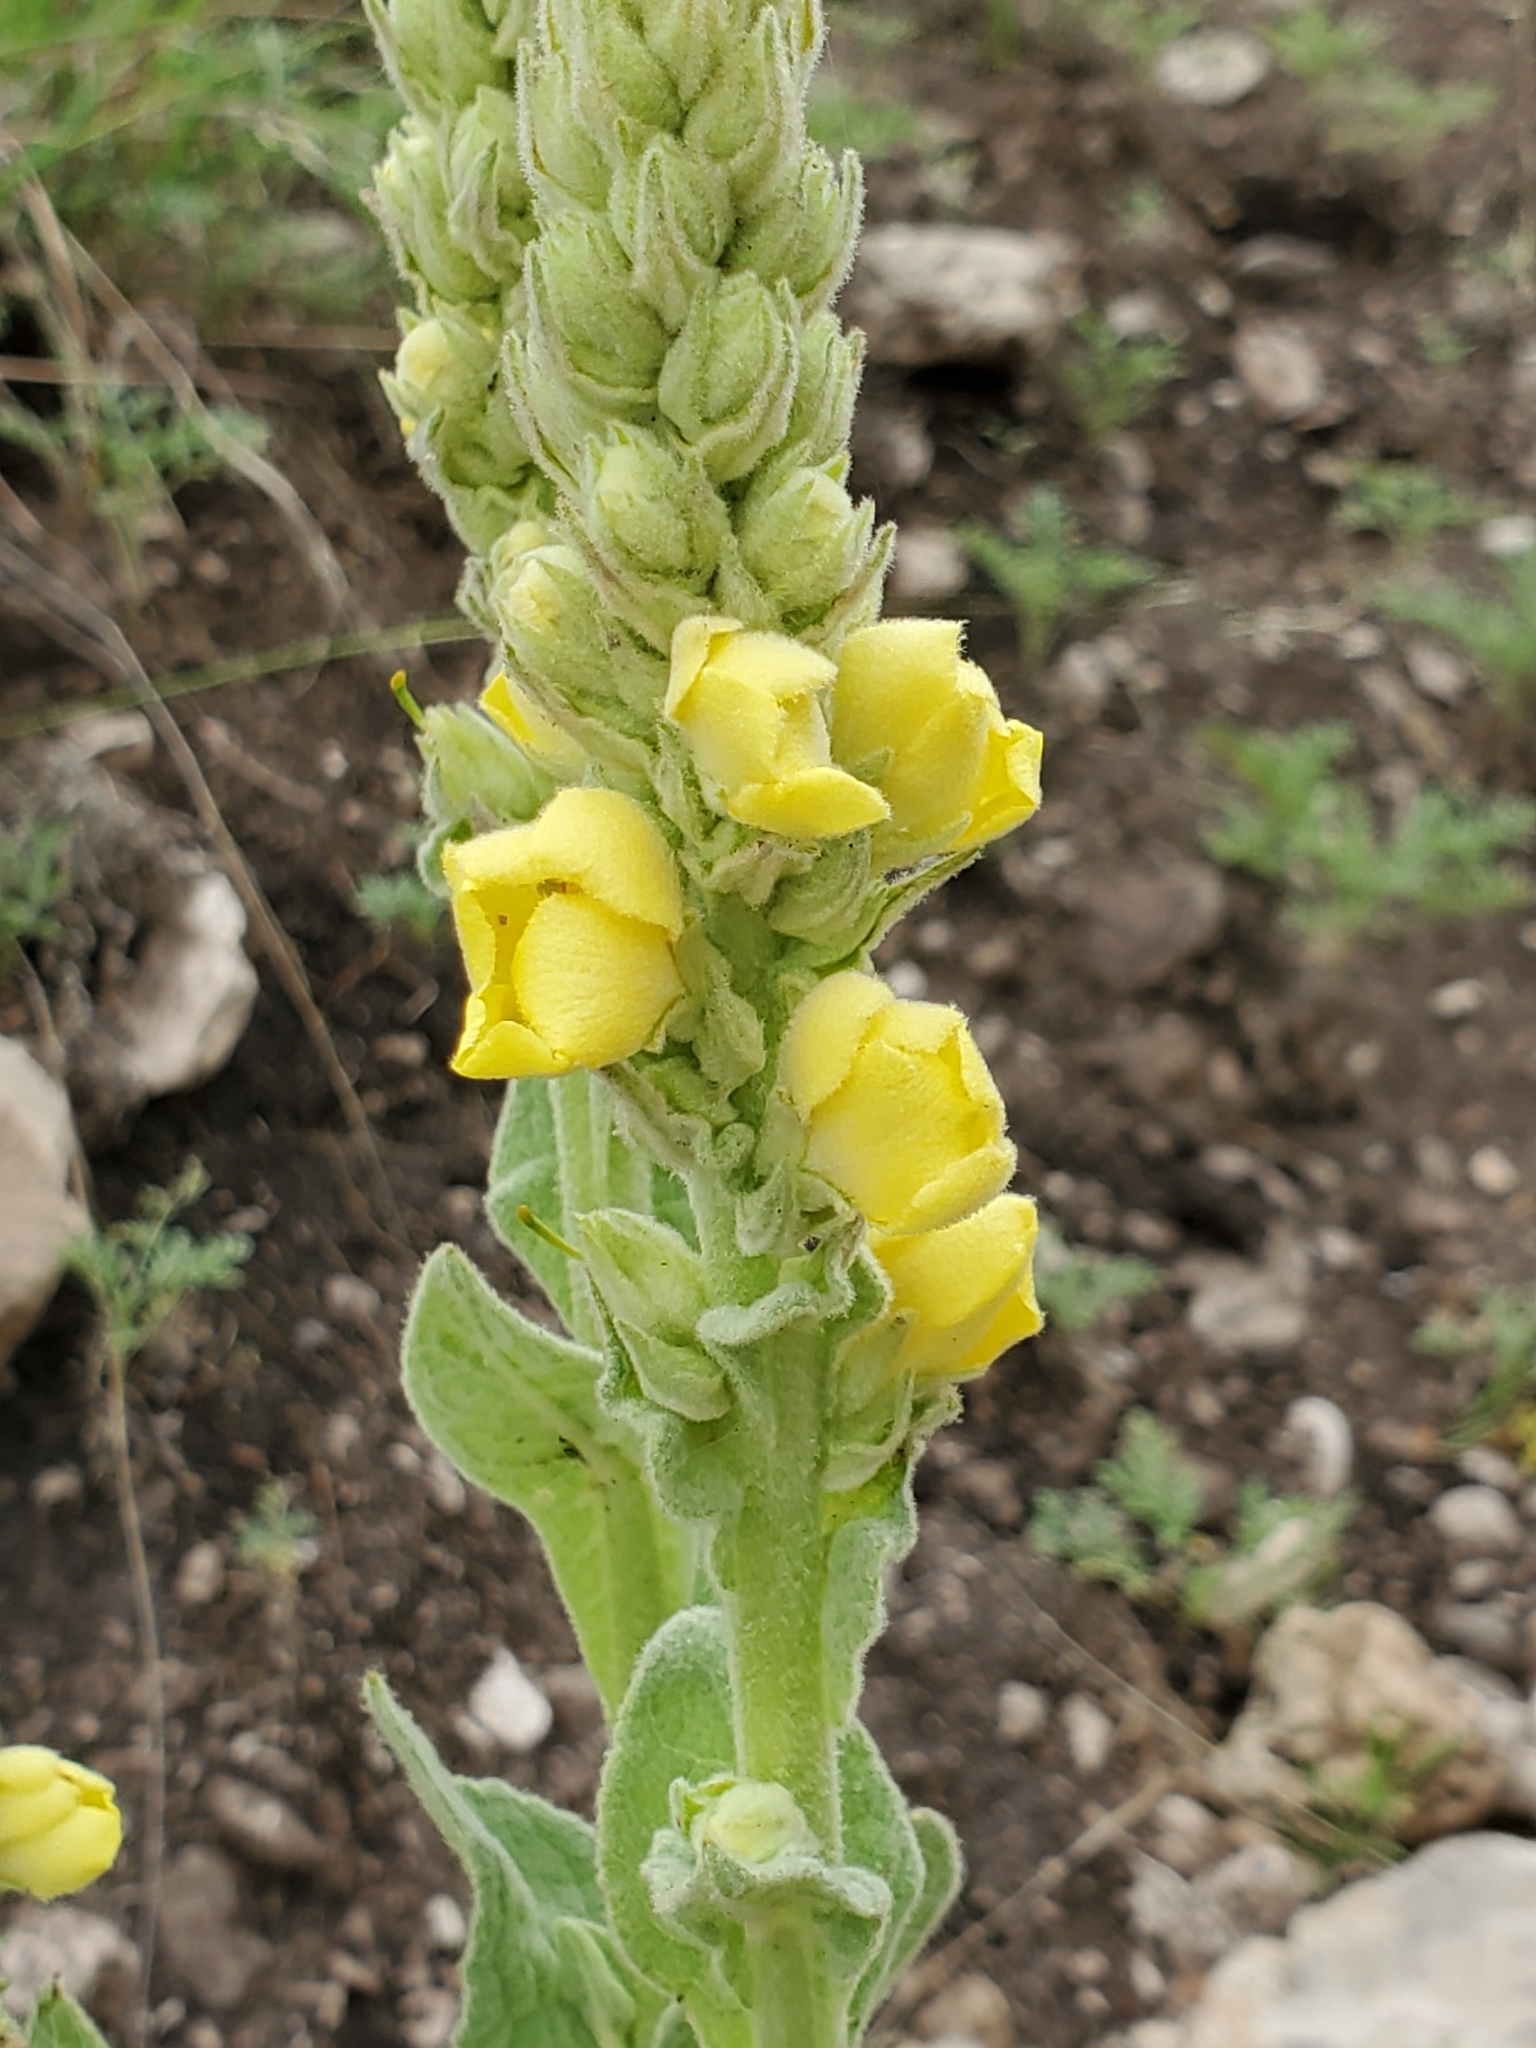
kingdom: Plantae
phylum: Tracheophyta
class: Magnoliopsida
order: Lamiales
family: Scrophulariaceae
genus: Verbascum
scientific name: Verbascum thapsus
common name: Common mullein
